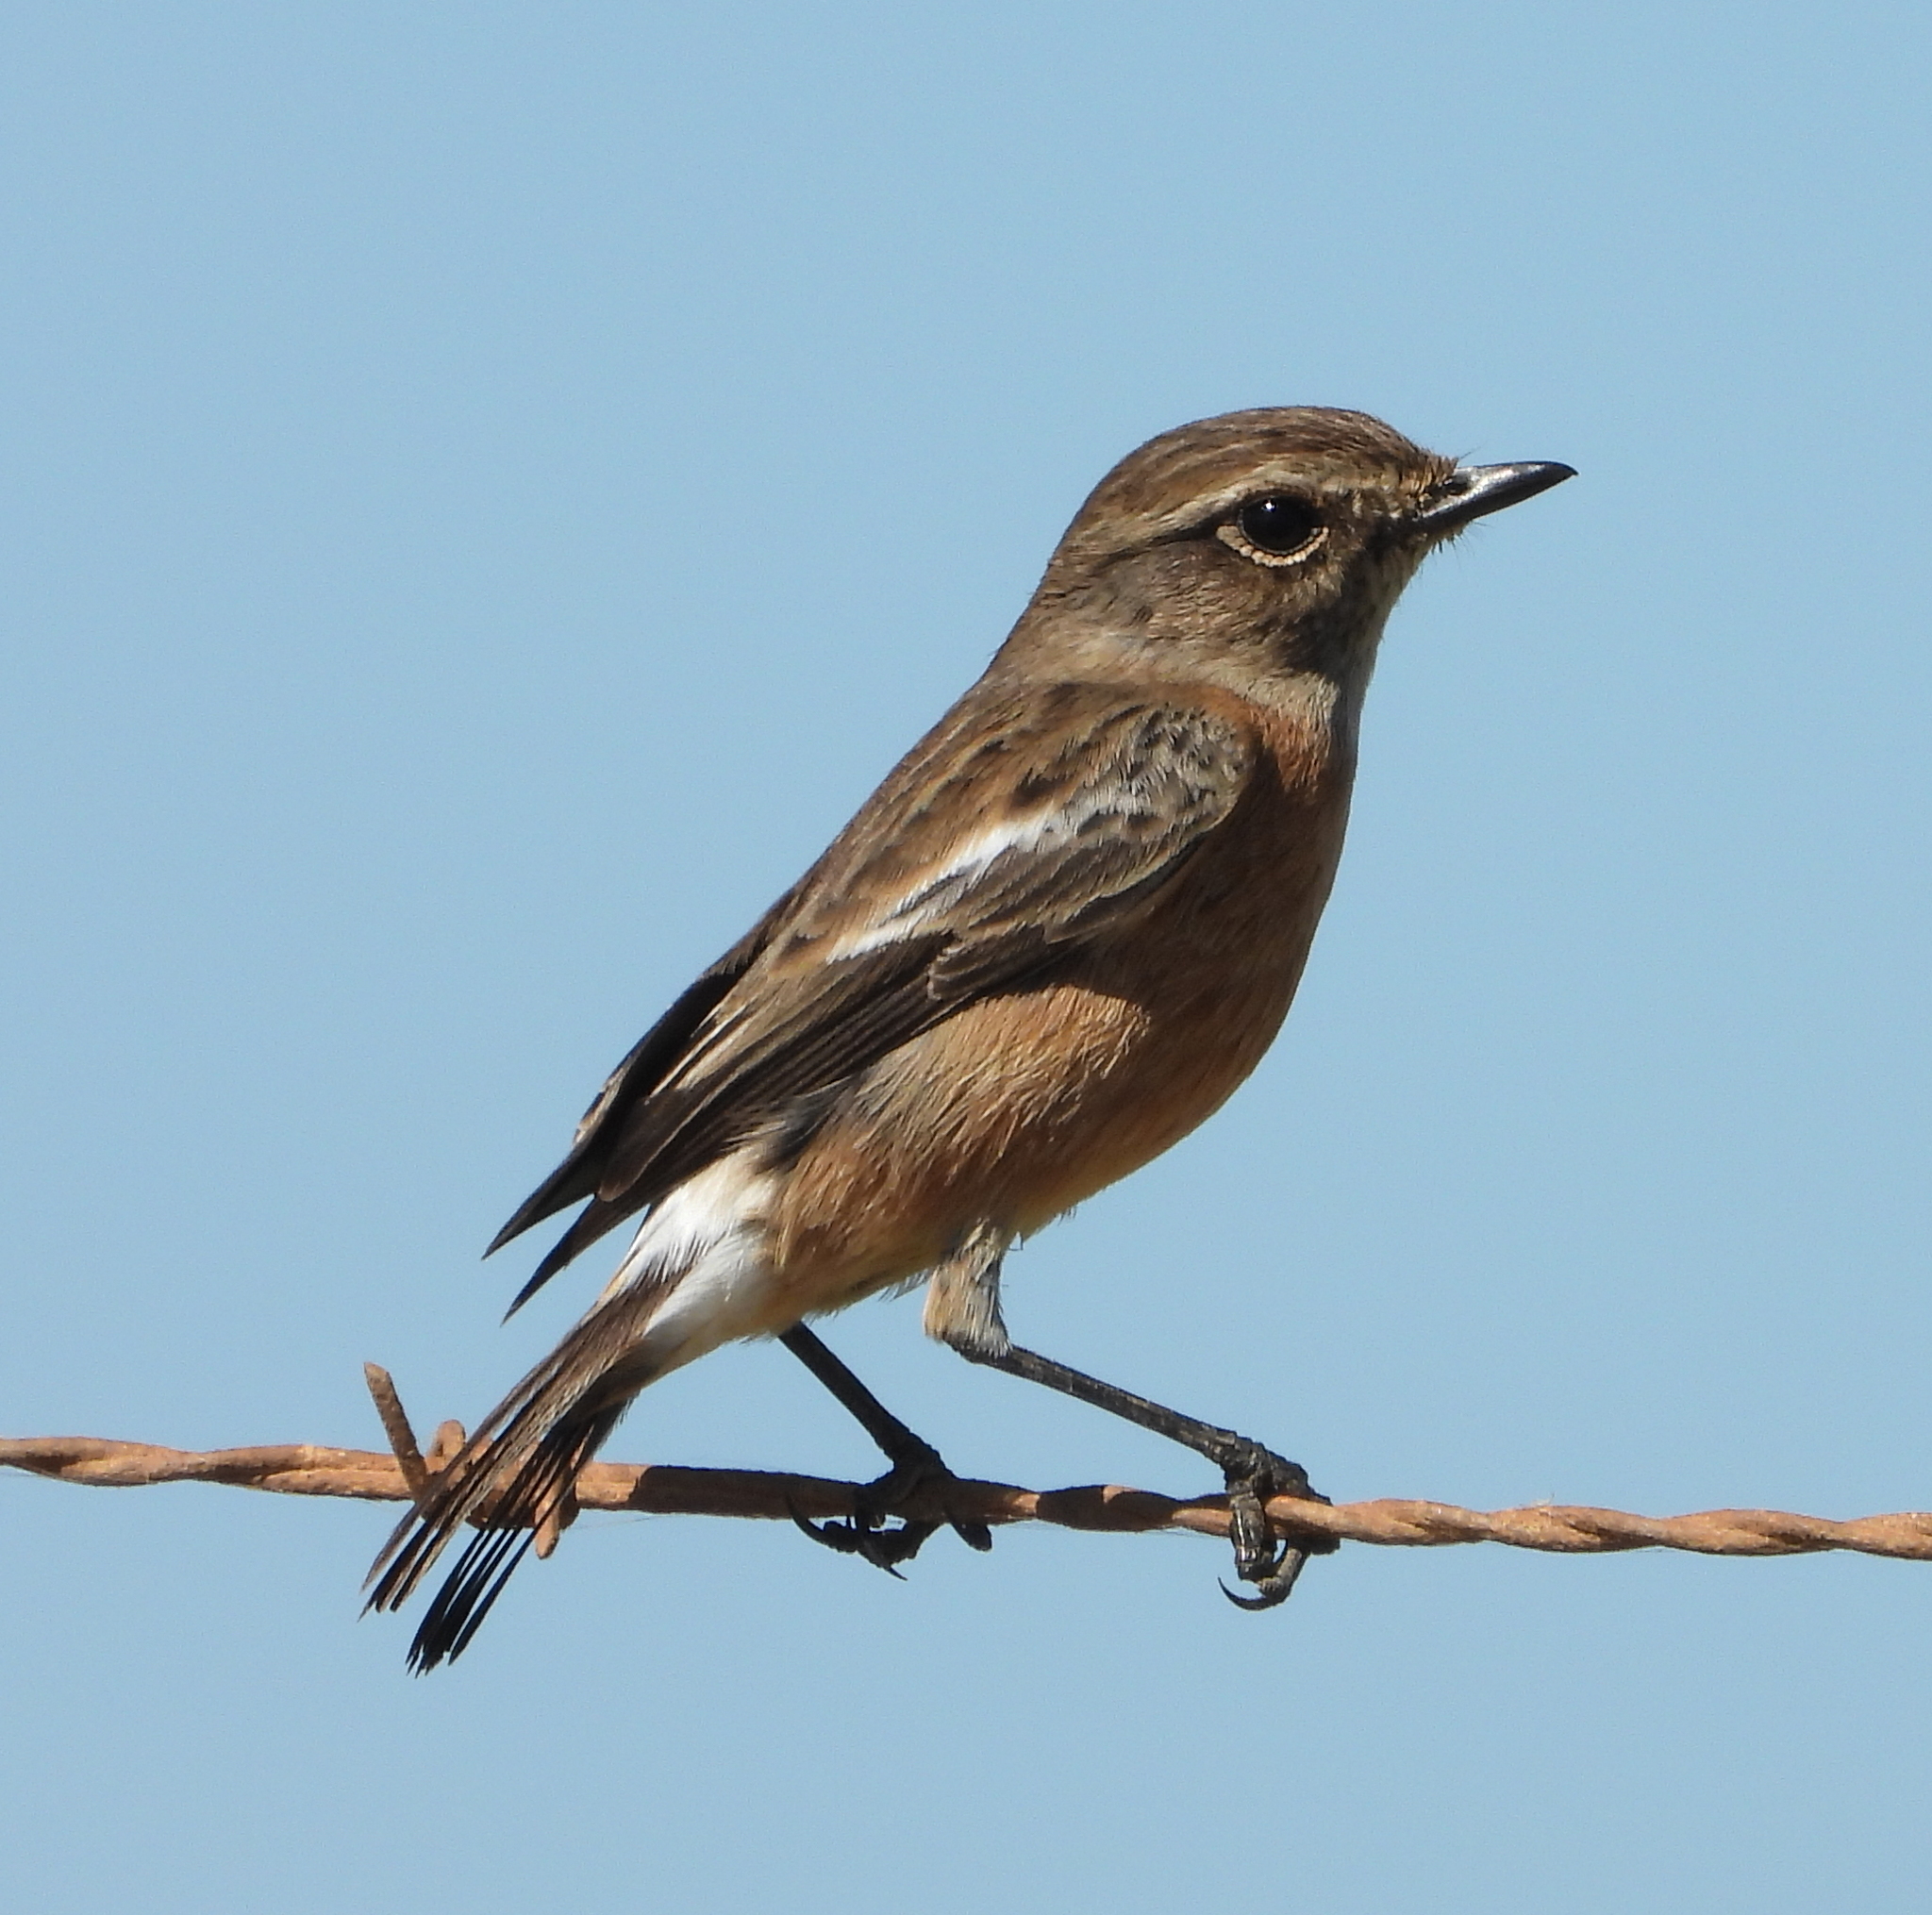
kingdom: Animalia
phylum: Chordata
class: Aves
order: Passeriformes
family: Muscicapidae
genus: Saxicola
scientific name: Saxicola torquatus
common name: African stonechat
